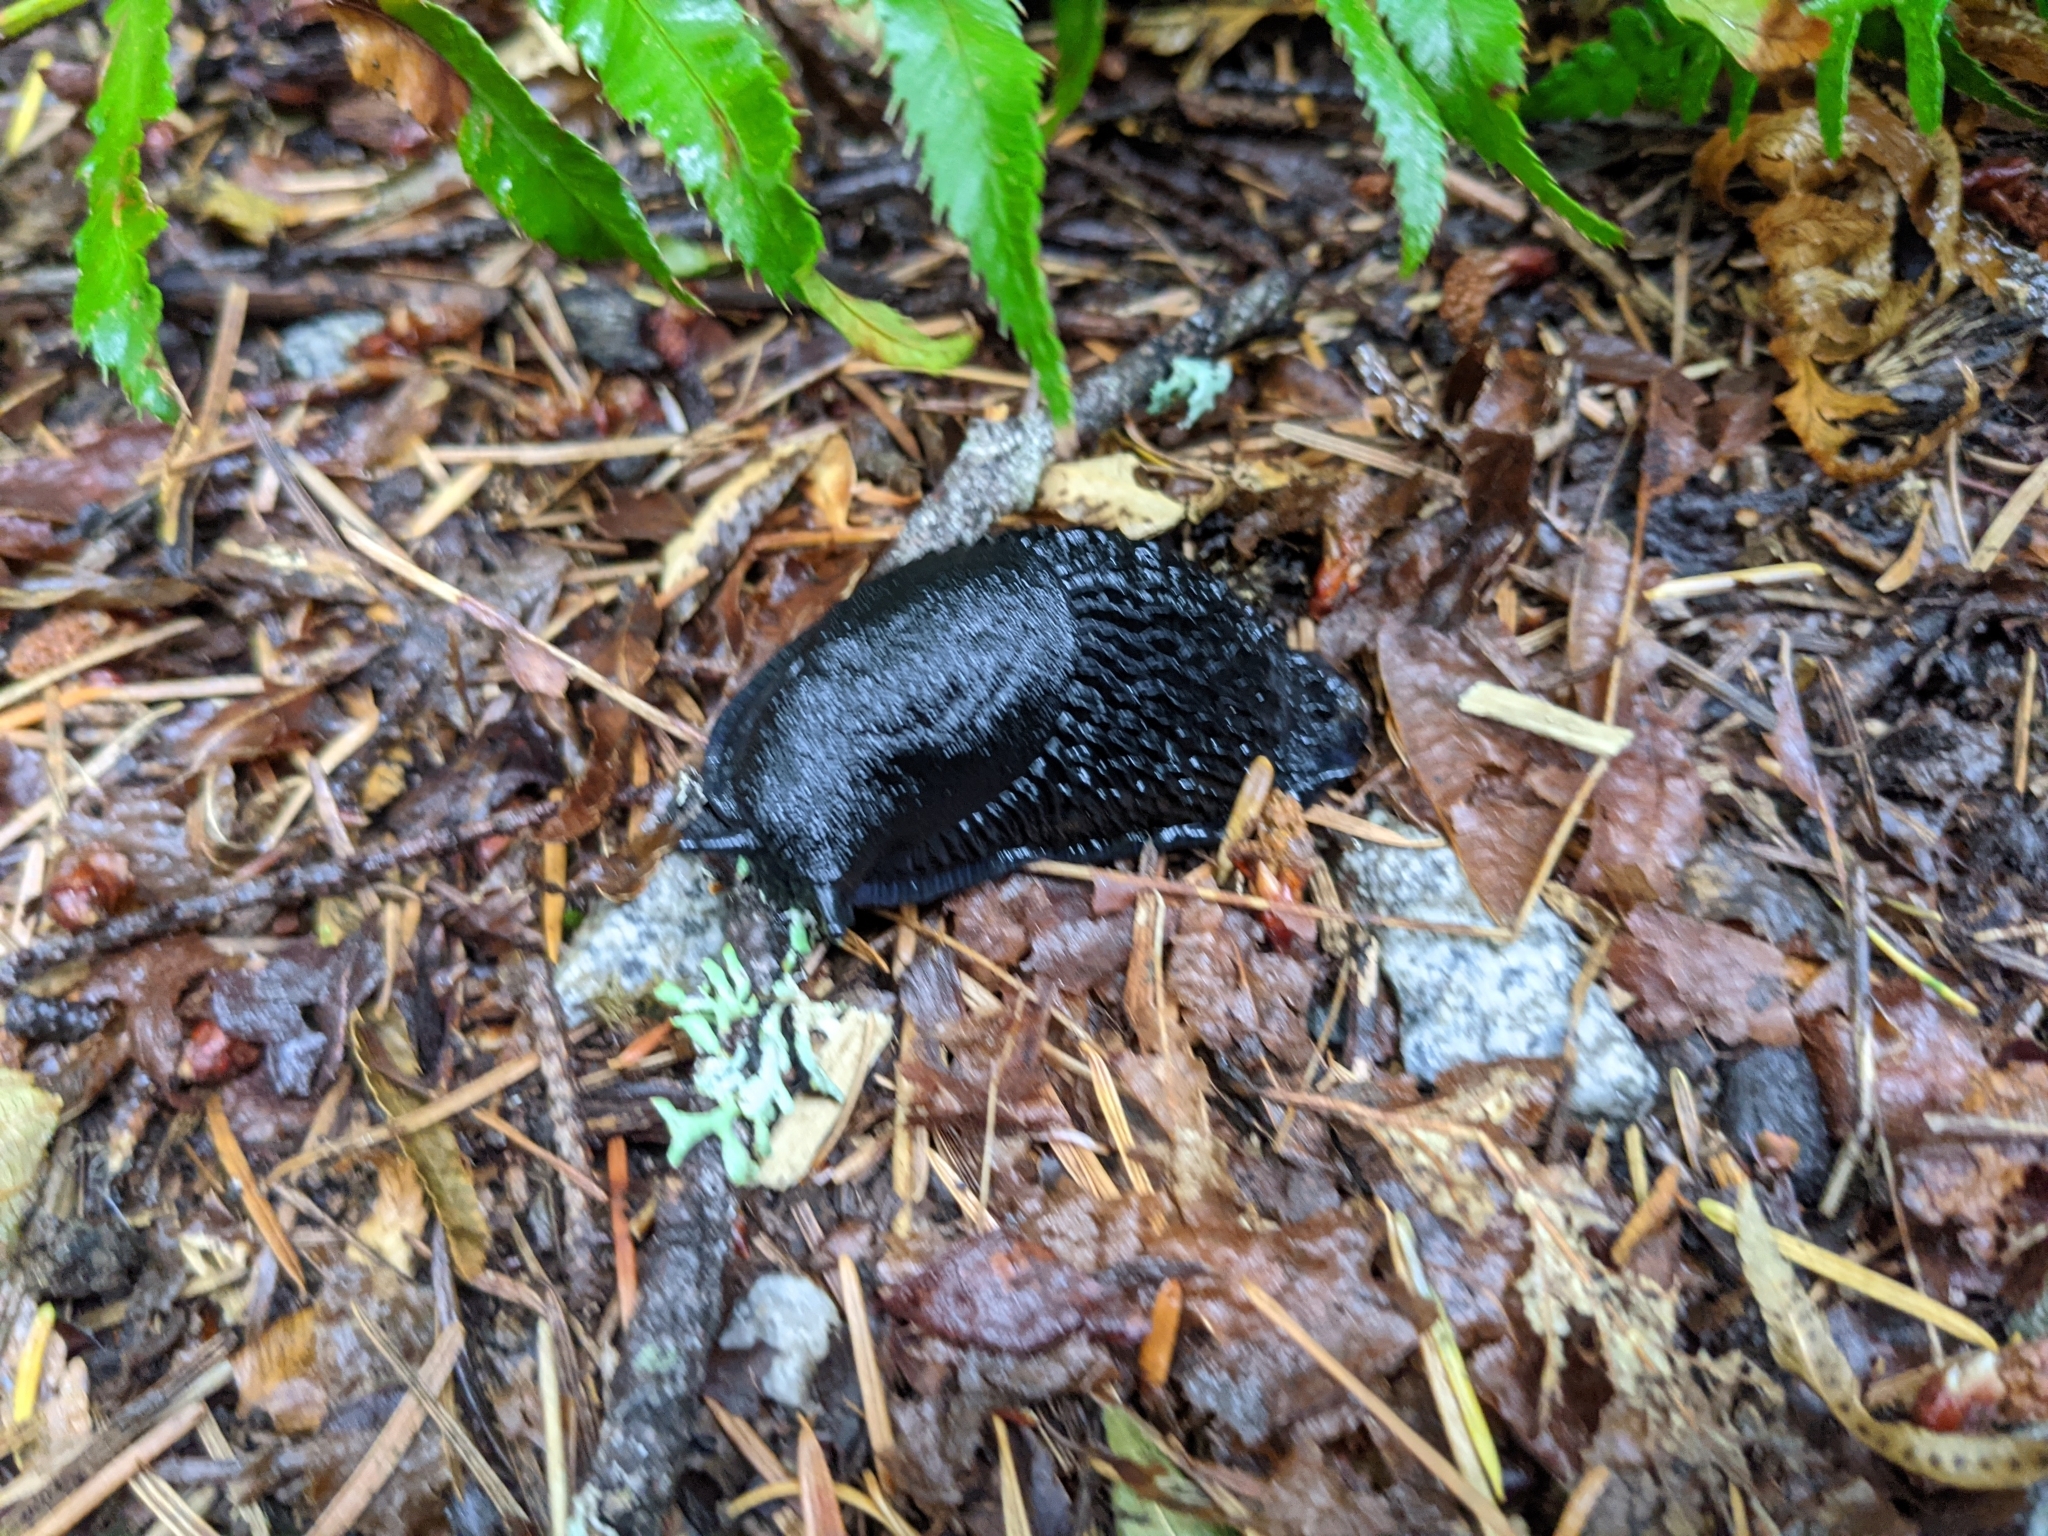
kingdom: Animalia
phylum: Mollusca
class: Gastropoda
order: Stylommatophora
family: Arionidae
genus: Arion
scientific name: Arion
